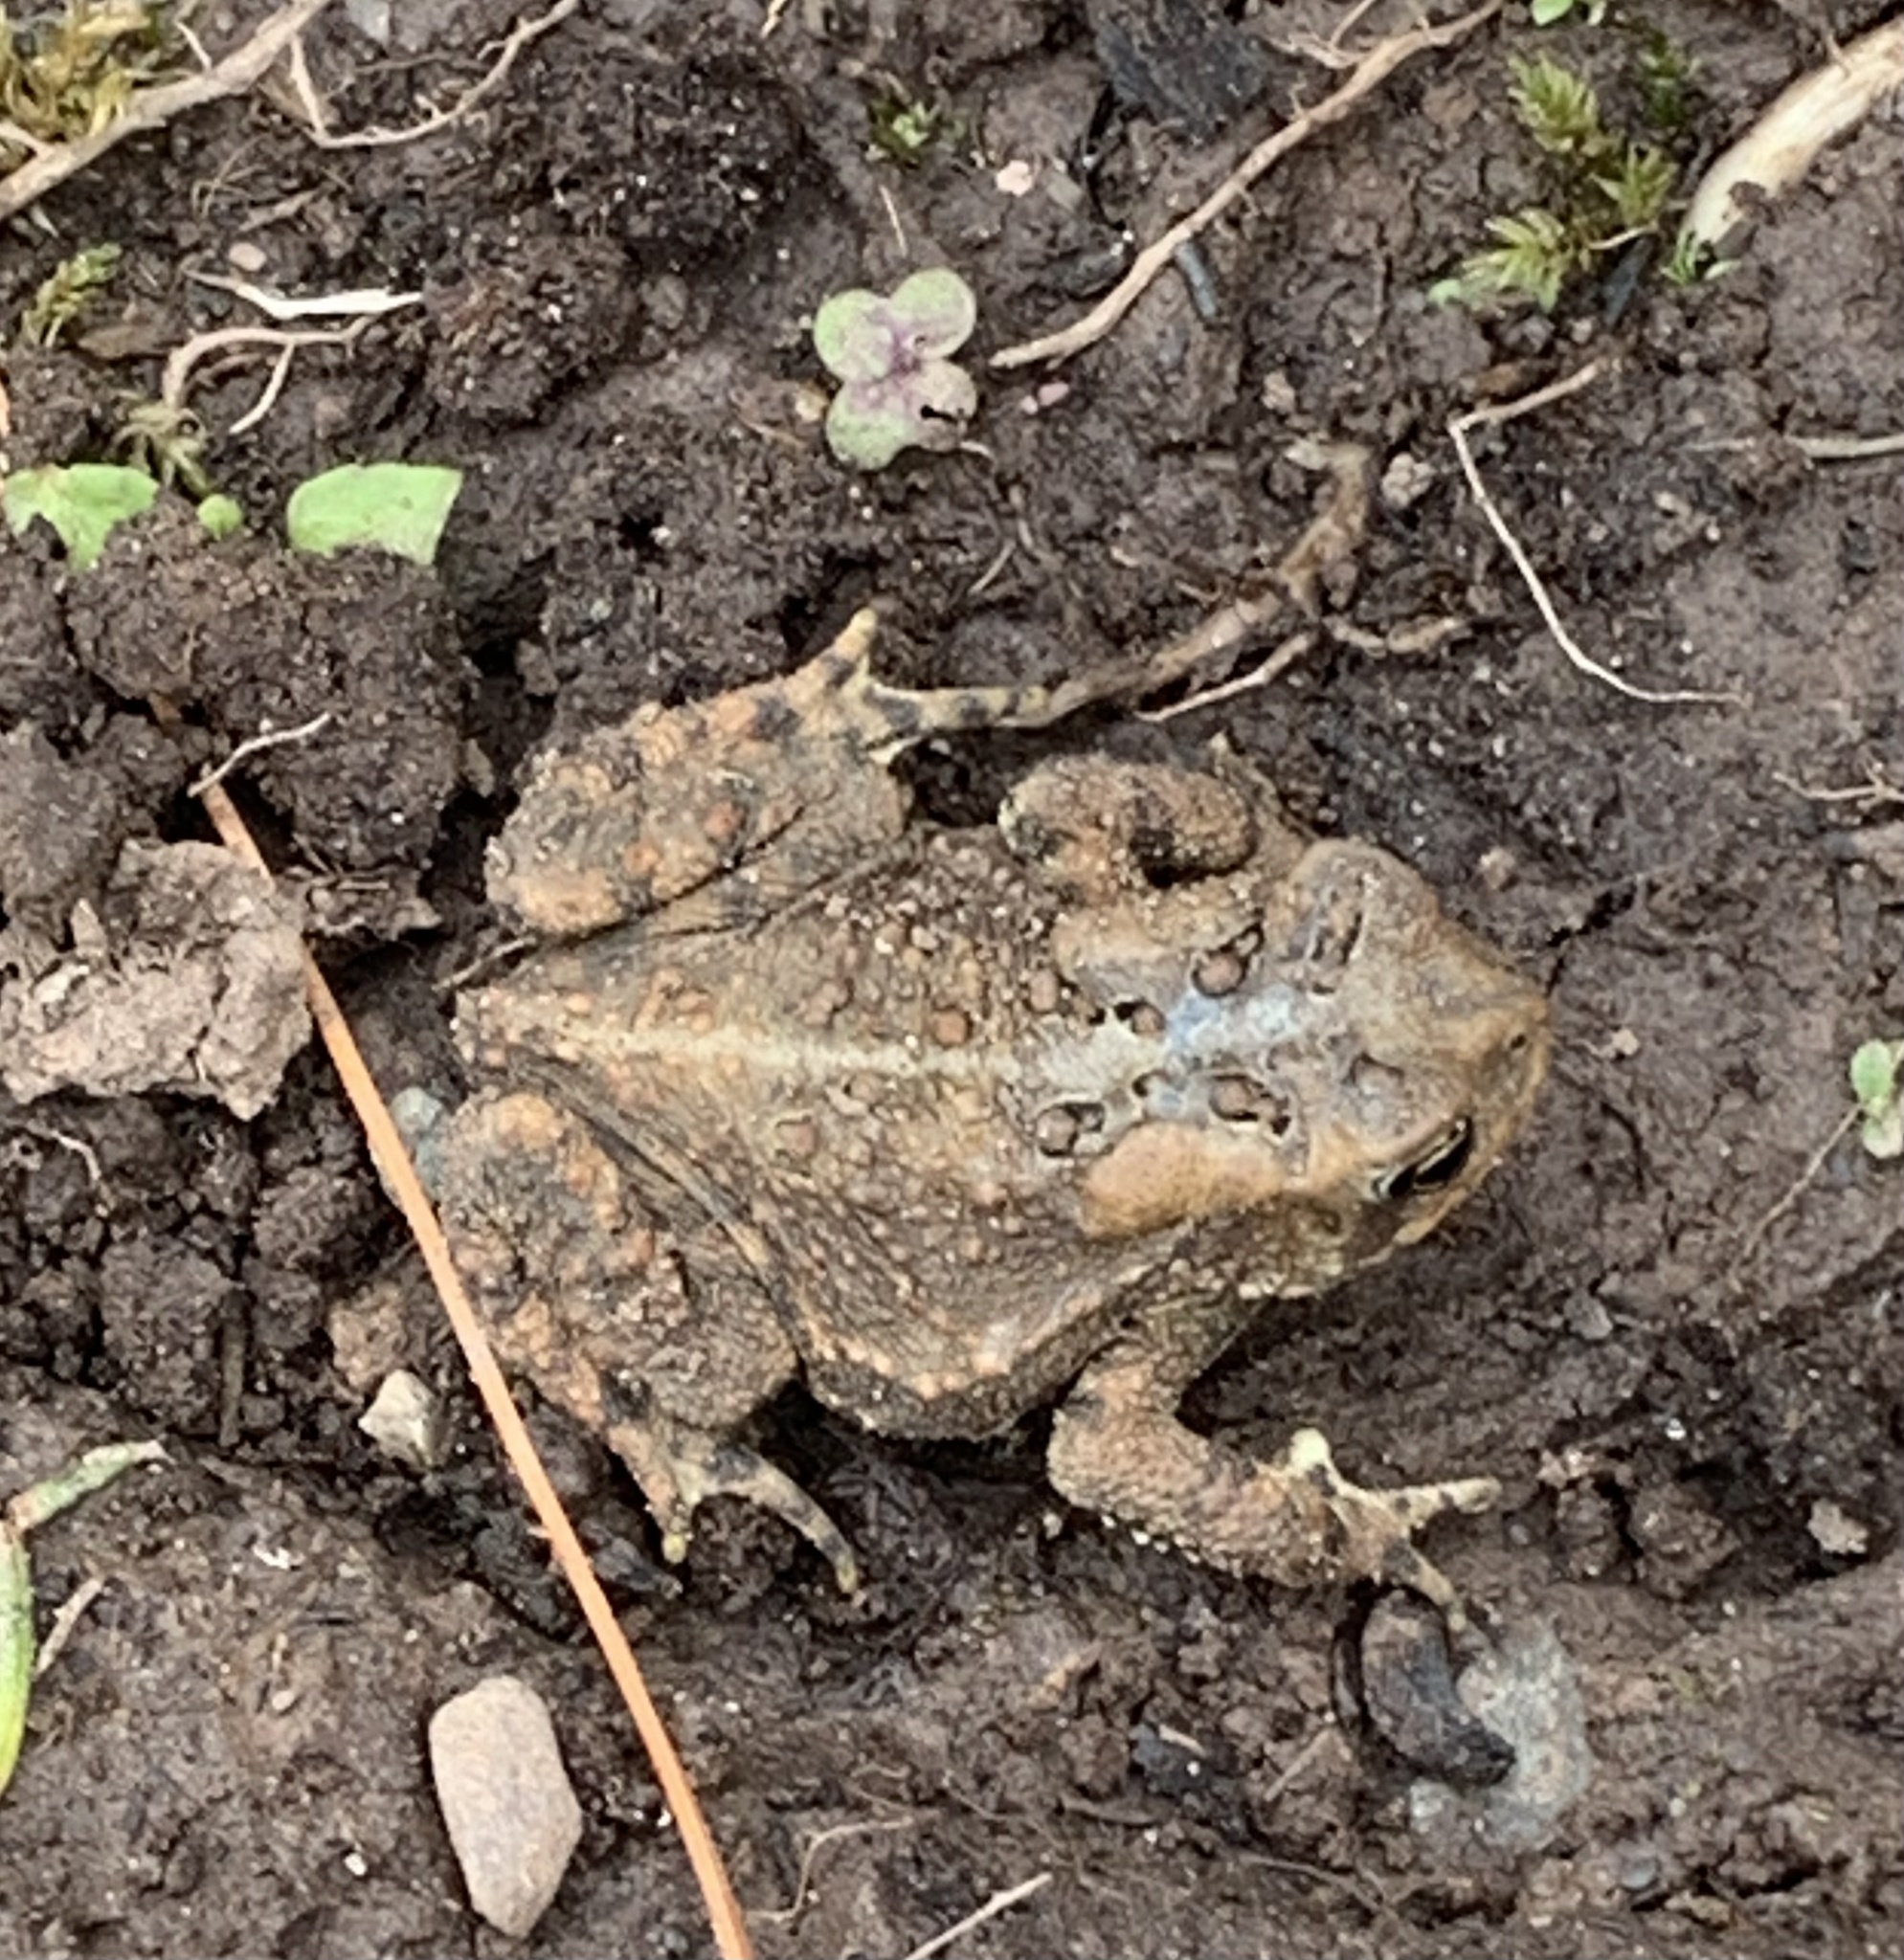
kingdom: Animalia
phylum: Chordata
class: Amphibia
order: Anura
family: Bufonidae
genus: Anaxyrus
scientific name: Anaxyrus americanus
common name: American toad
